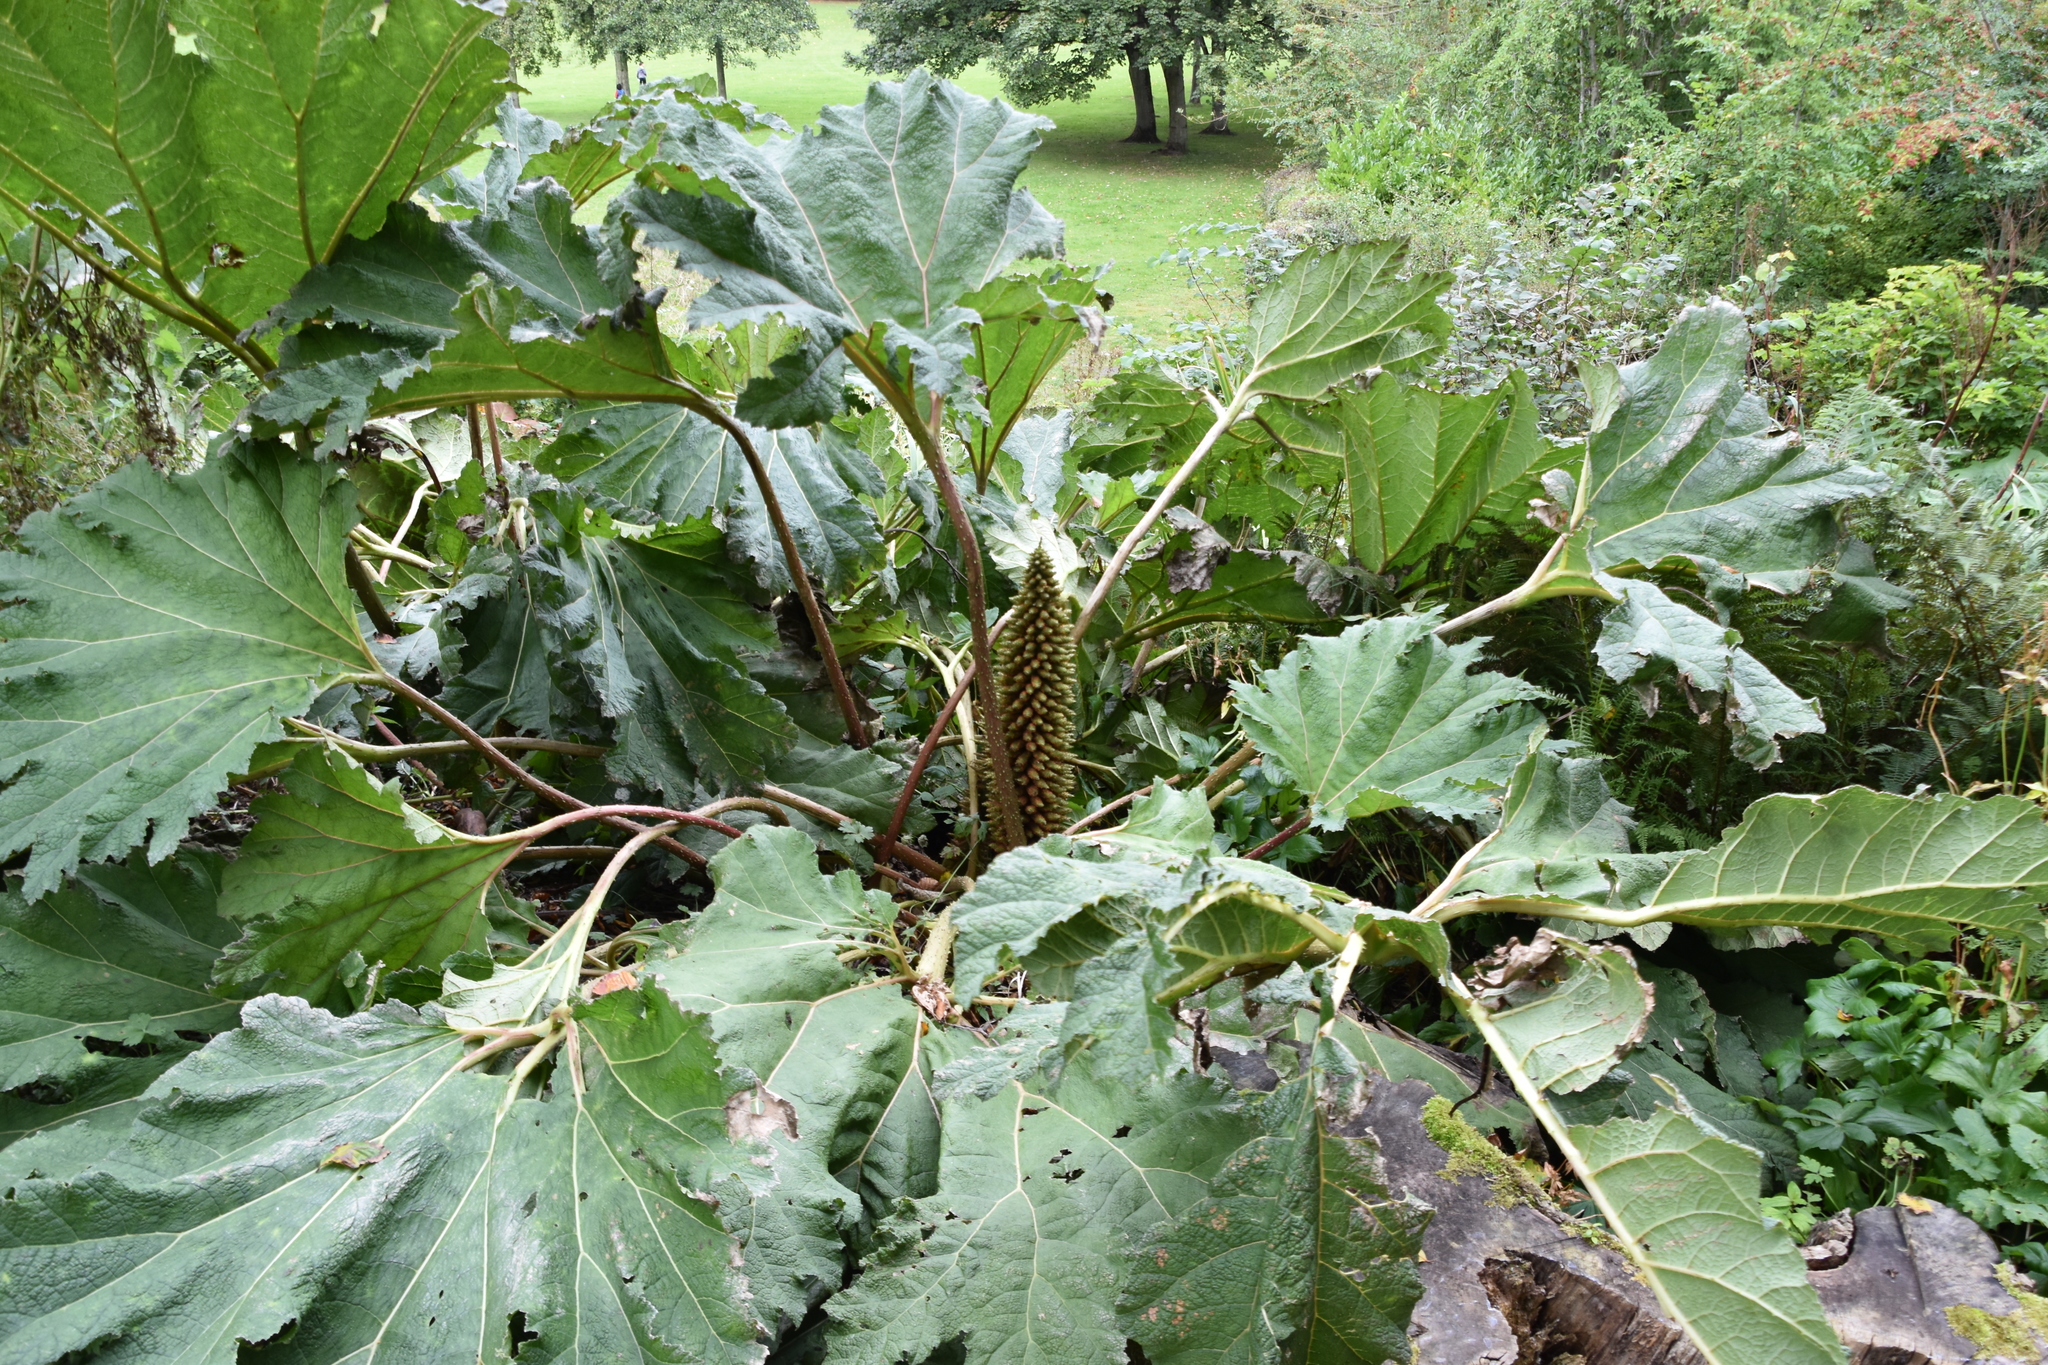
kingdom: Plantae
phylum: Tracheophyta
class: Magnoliopsida
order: Gunnerales
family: Gunneraceae
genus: Gunnera
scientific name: Gunnera tinctoria
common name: Giant-rhubarb
